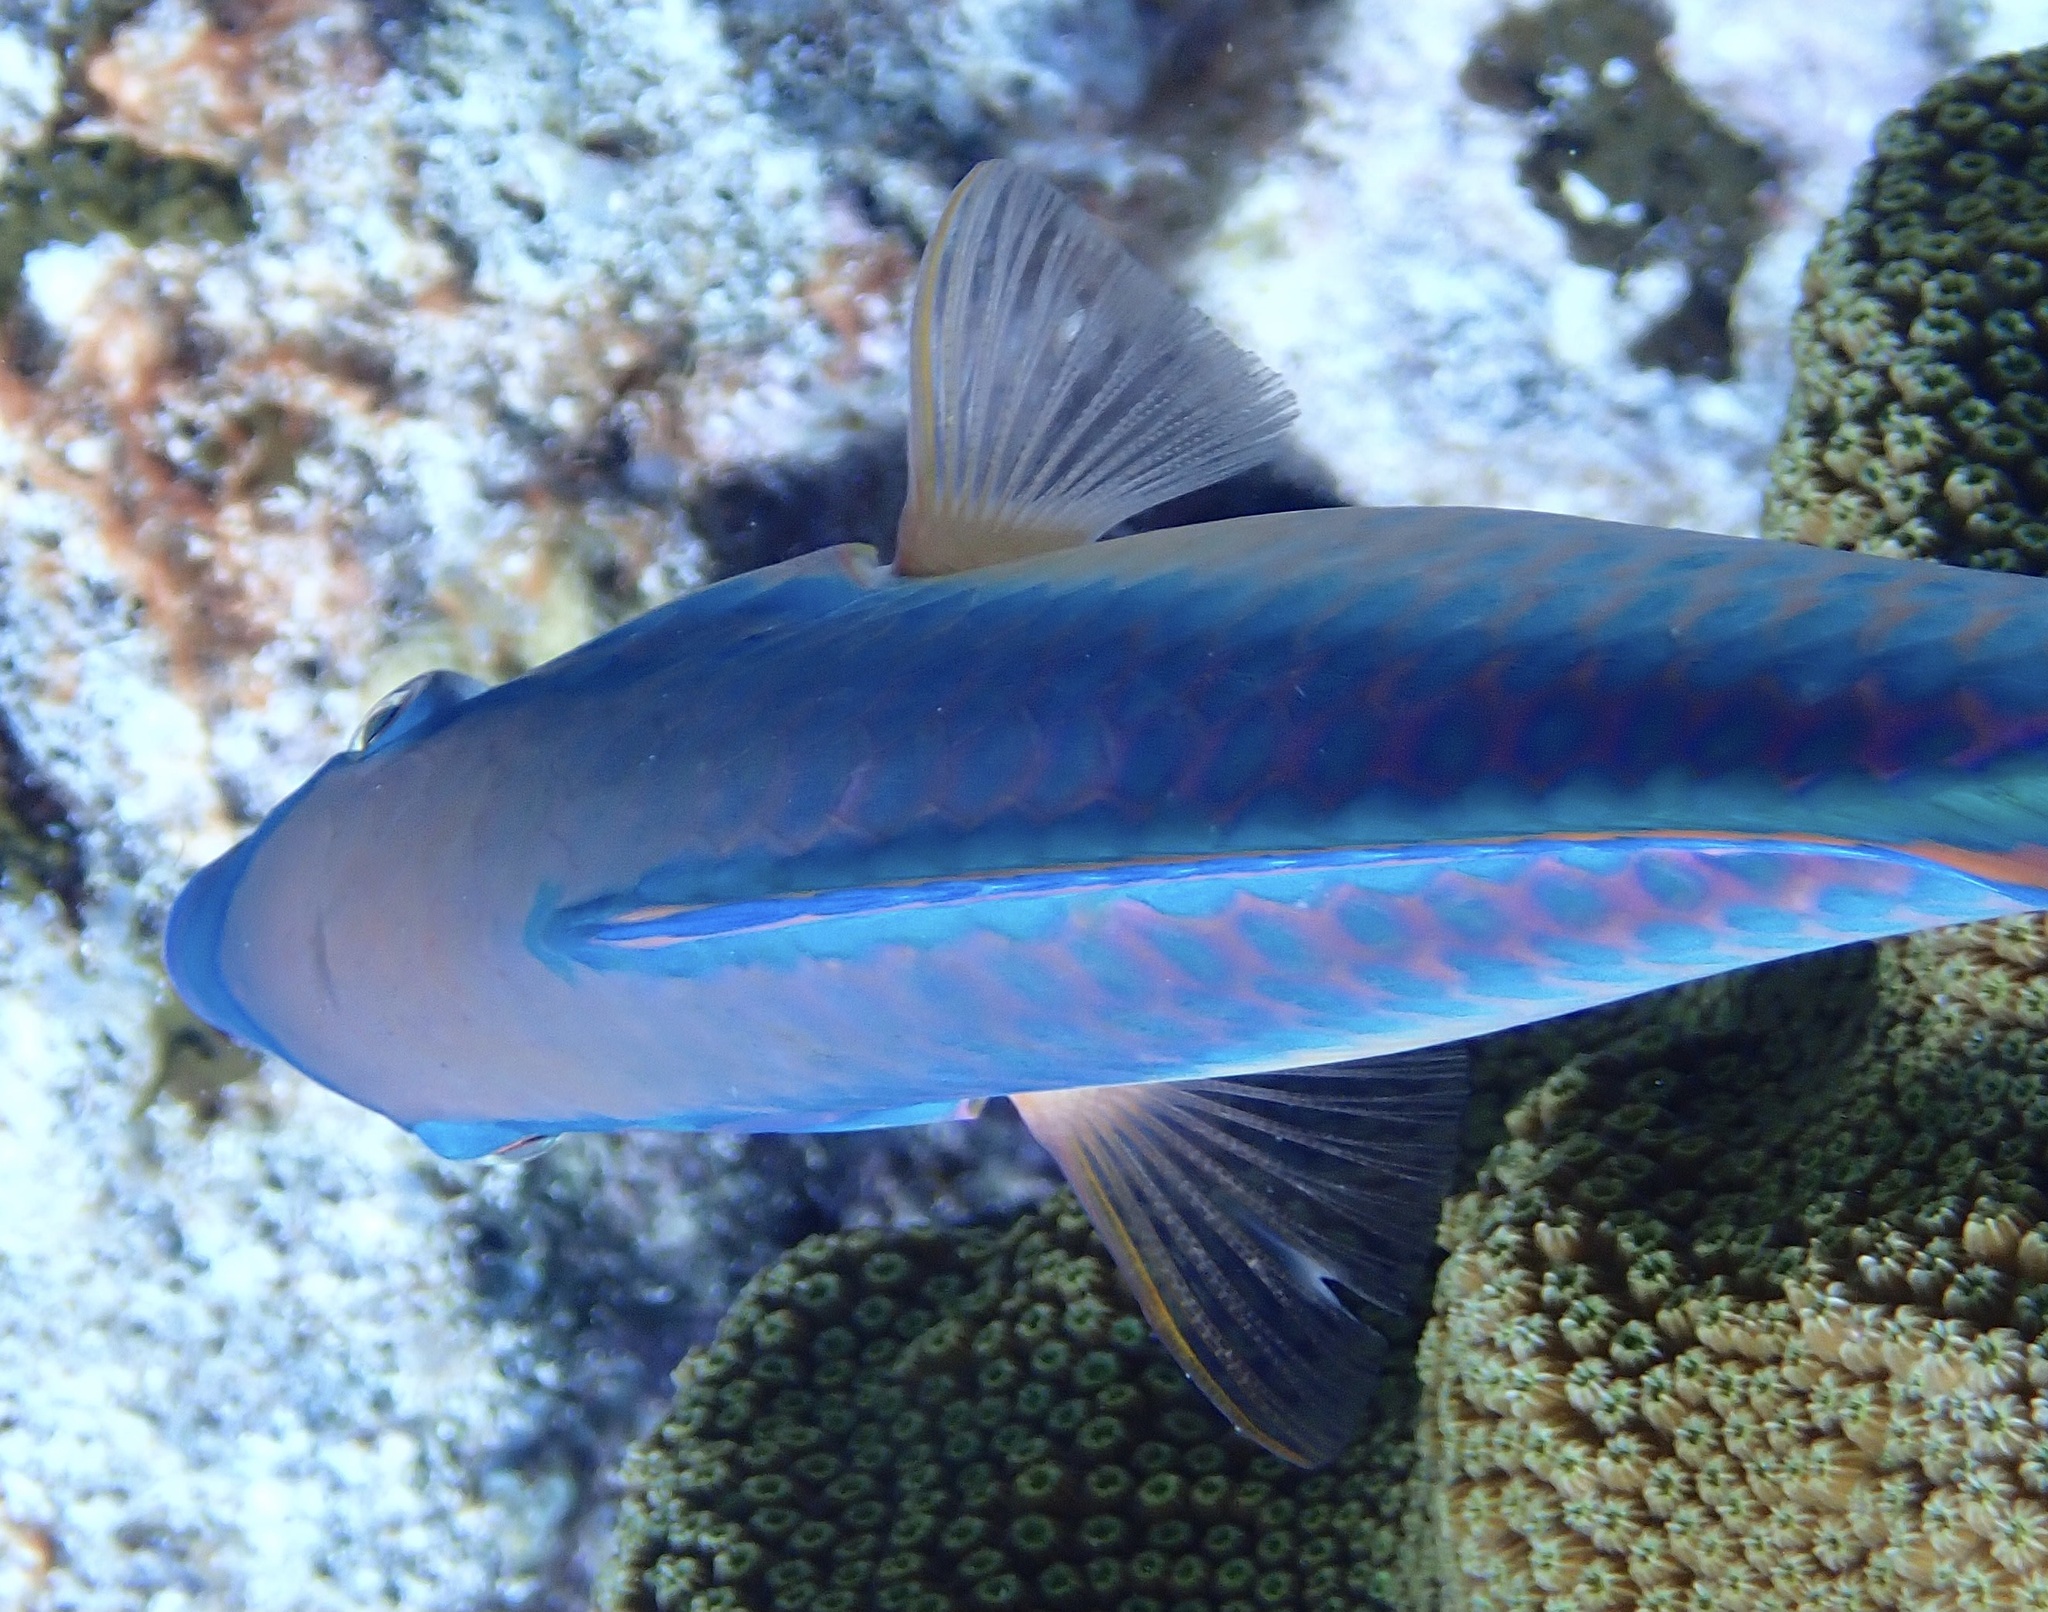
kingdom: Animalia
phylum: Chordata
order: Perciformes
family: Scaridae
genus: Scarus
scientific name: Scarus taeniopterus
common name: Princess parrotfish
